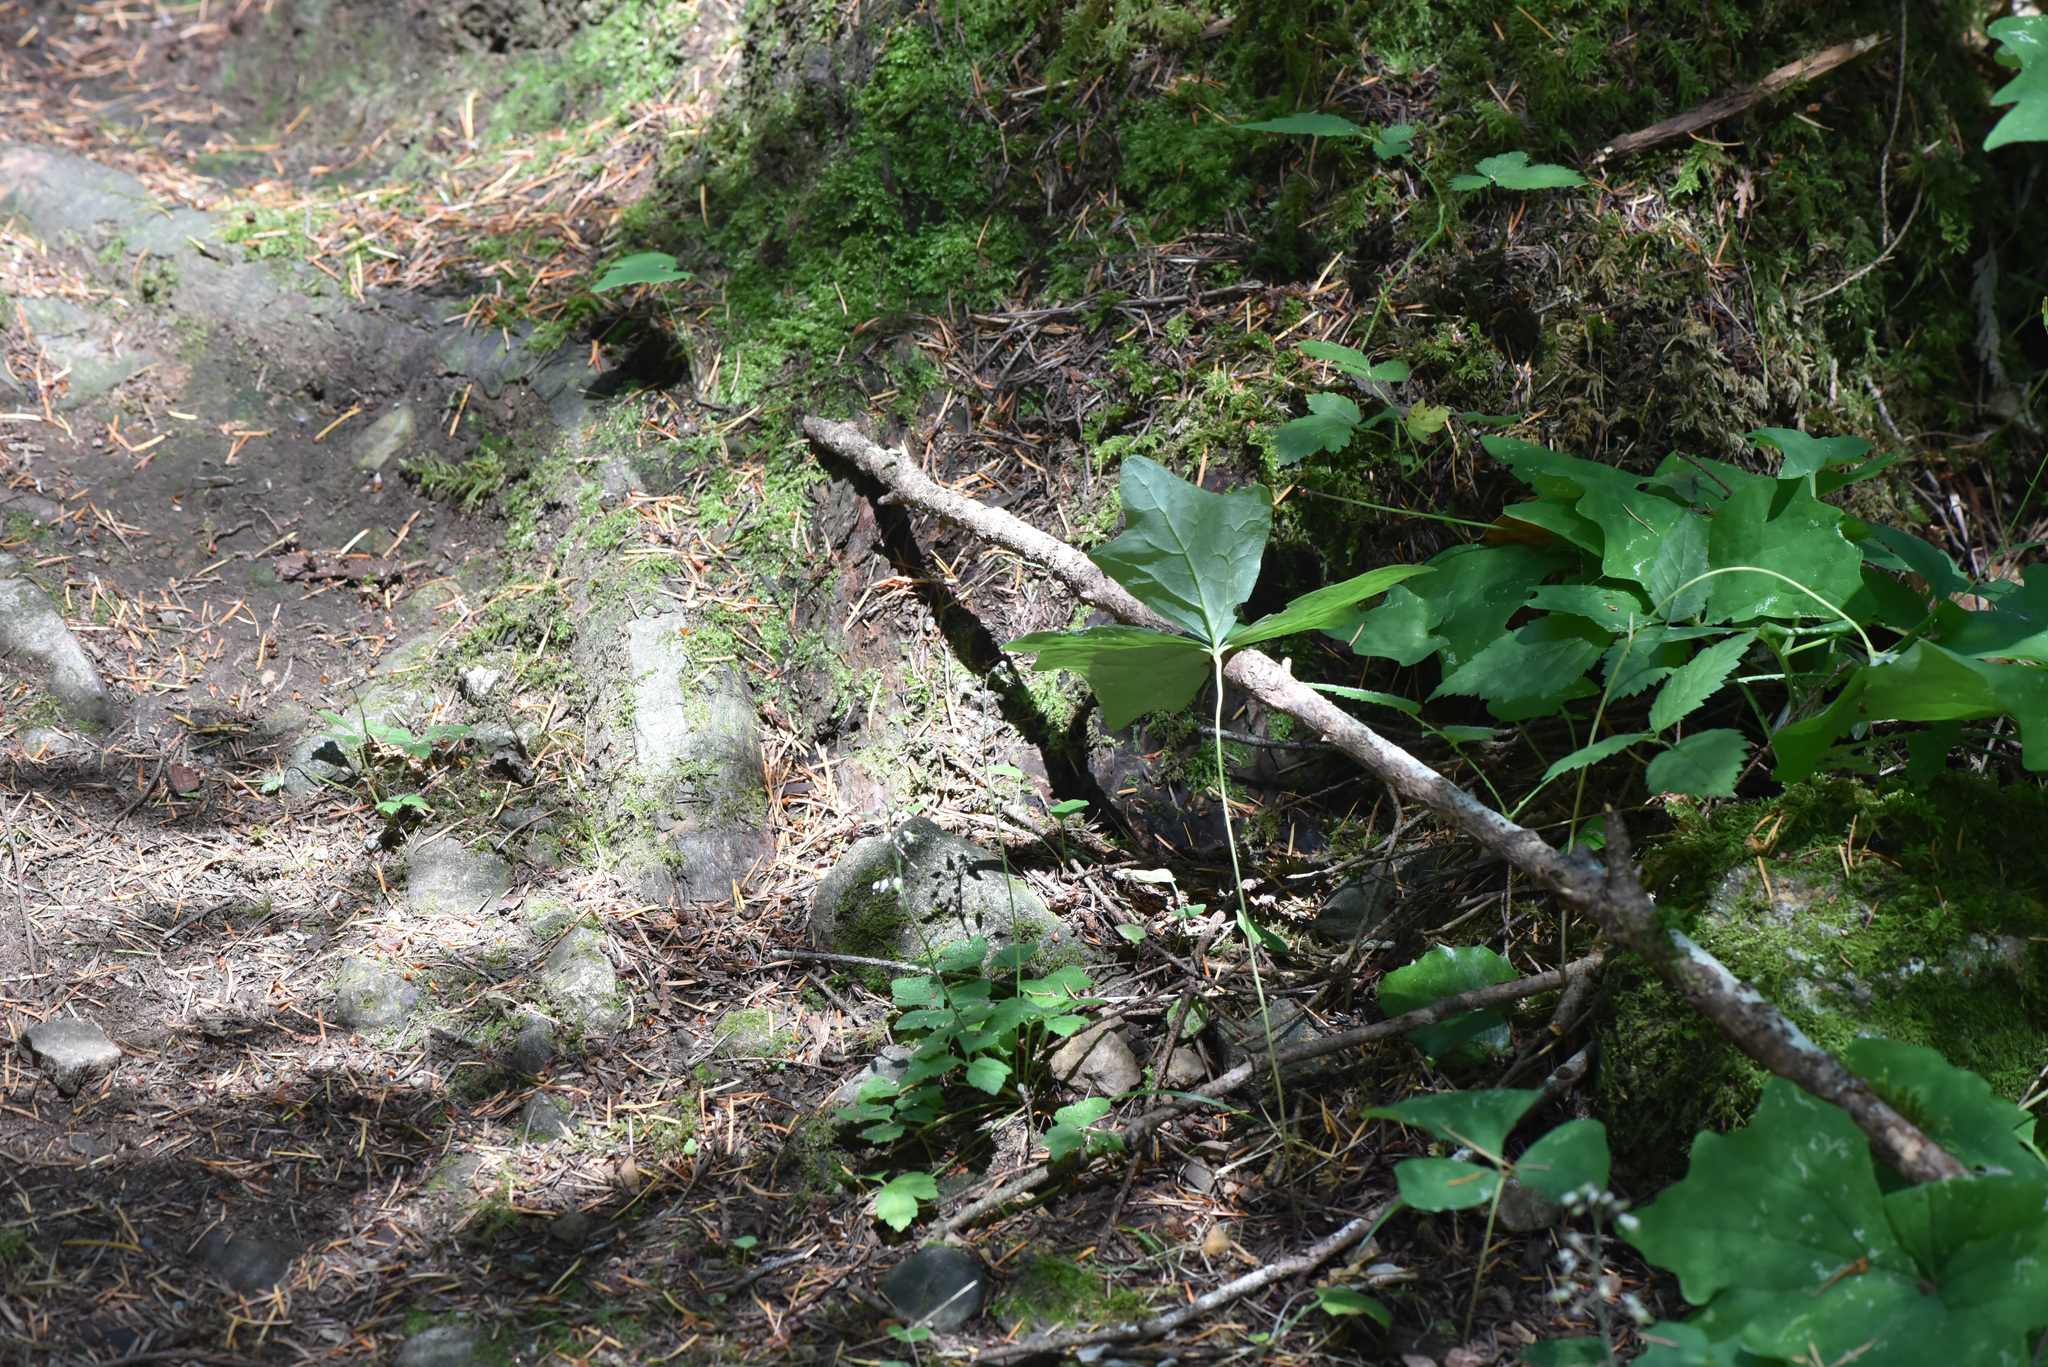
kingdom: Plantae
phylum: Tracheophyta
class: Magnoliopsida
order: Ranunculales
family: Berberidaceae
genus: Achlys
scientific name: Achlys triphylla
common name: Vanilla-leaf
